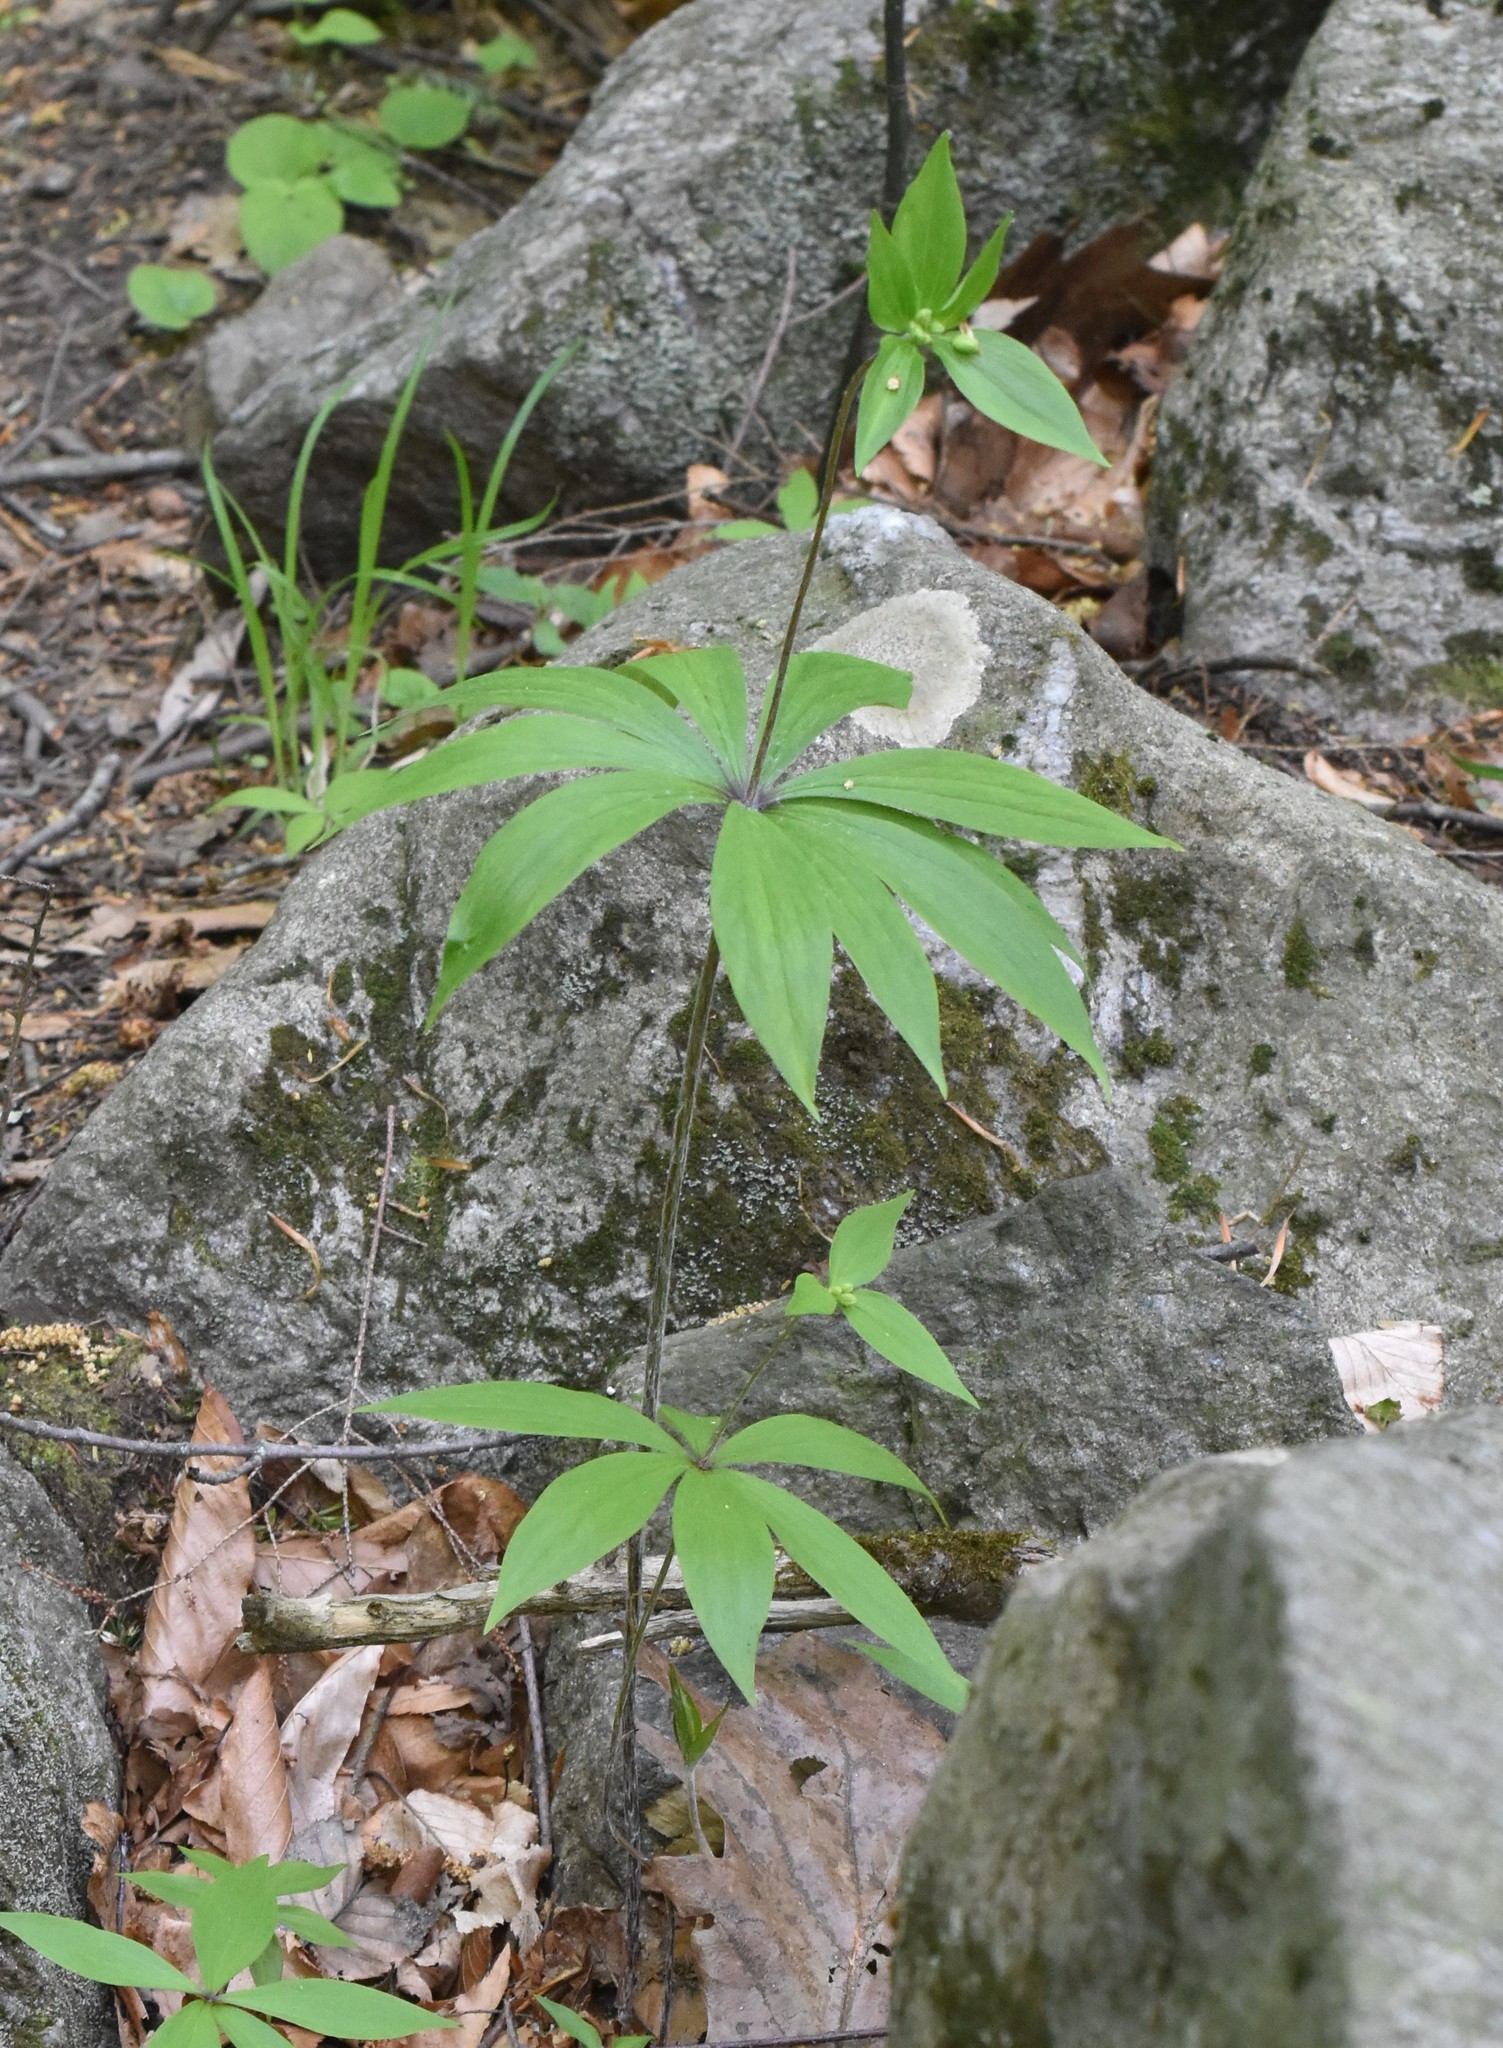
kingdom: Plantae
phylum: Tracheophyta
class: Liliopsida
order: Liliales
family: Liliaceae
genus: Medeola
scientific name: Medeola virginiana
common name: Indian cucumber-root
